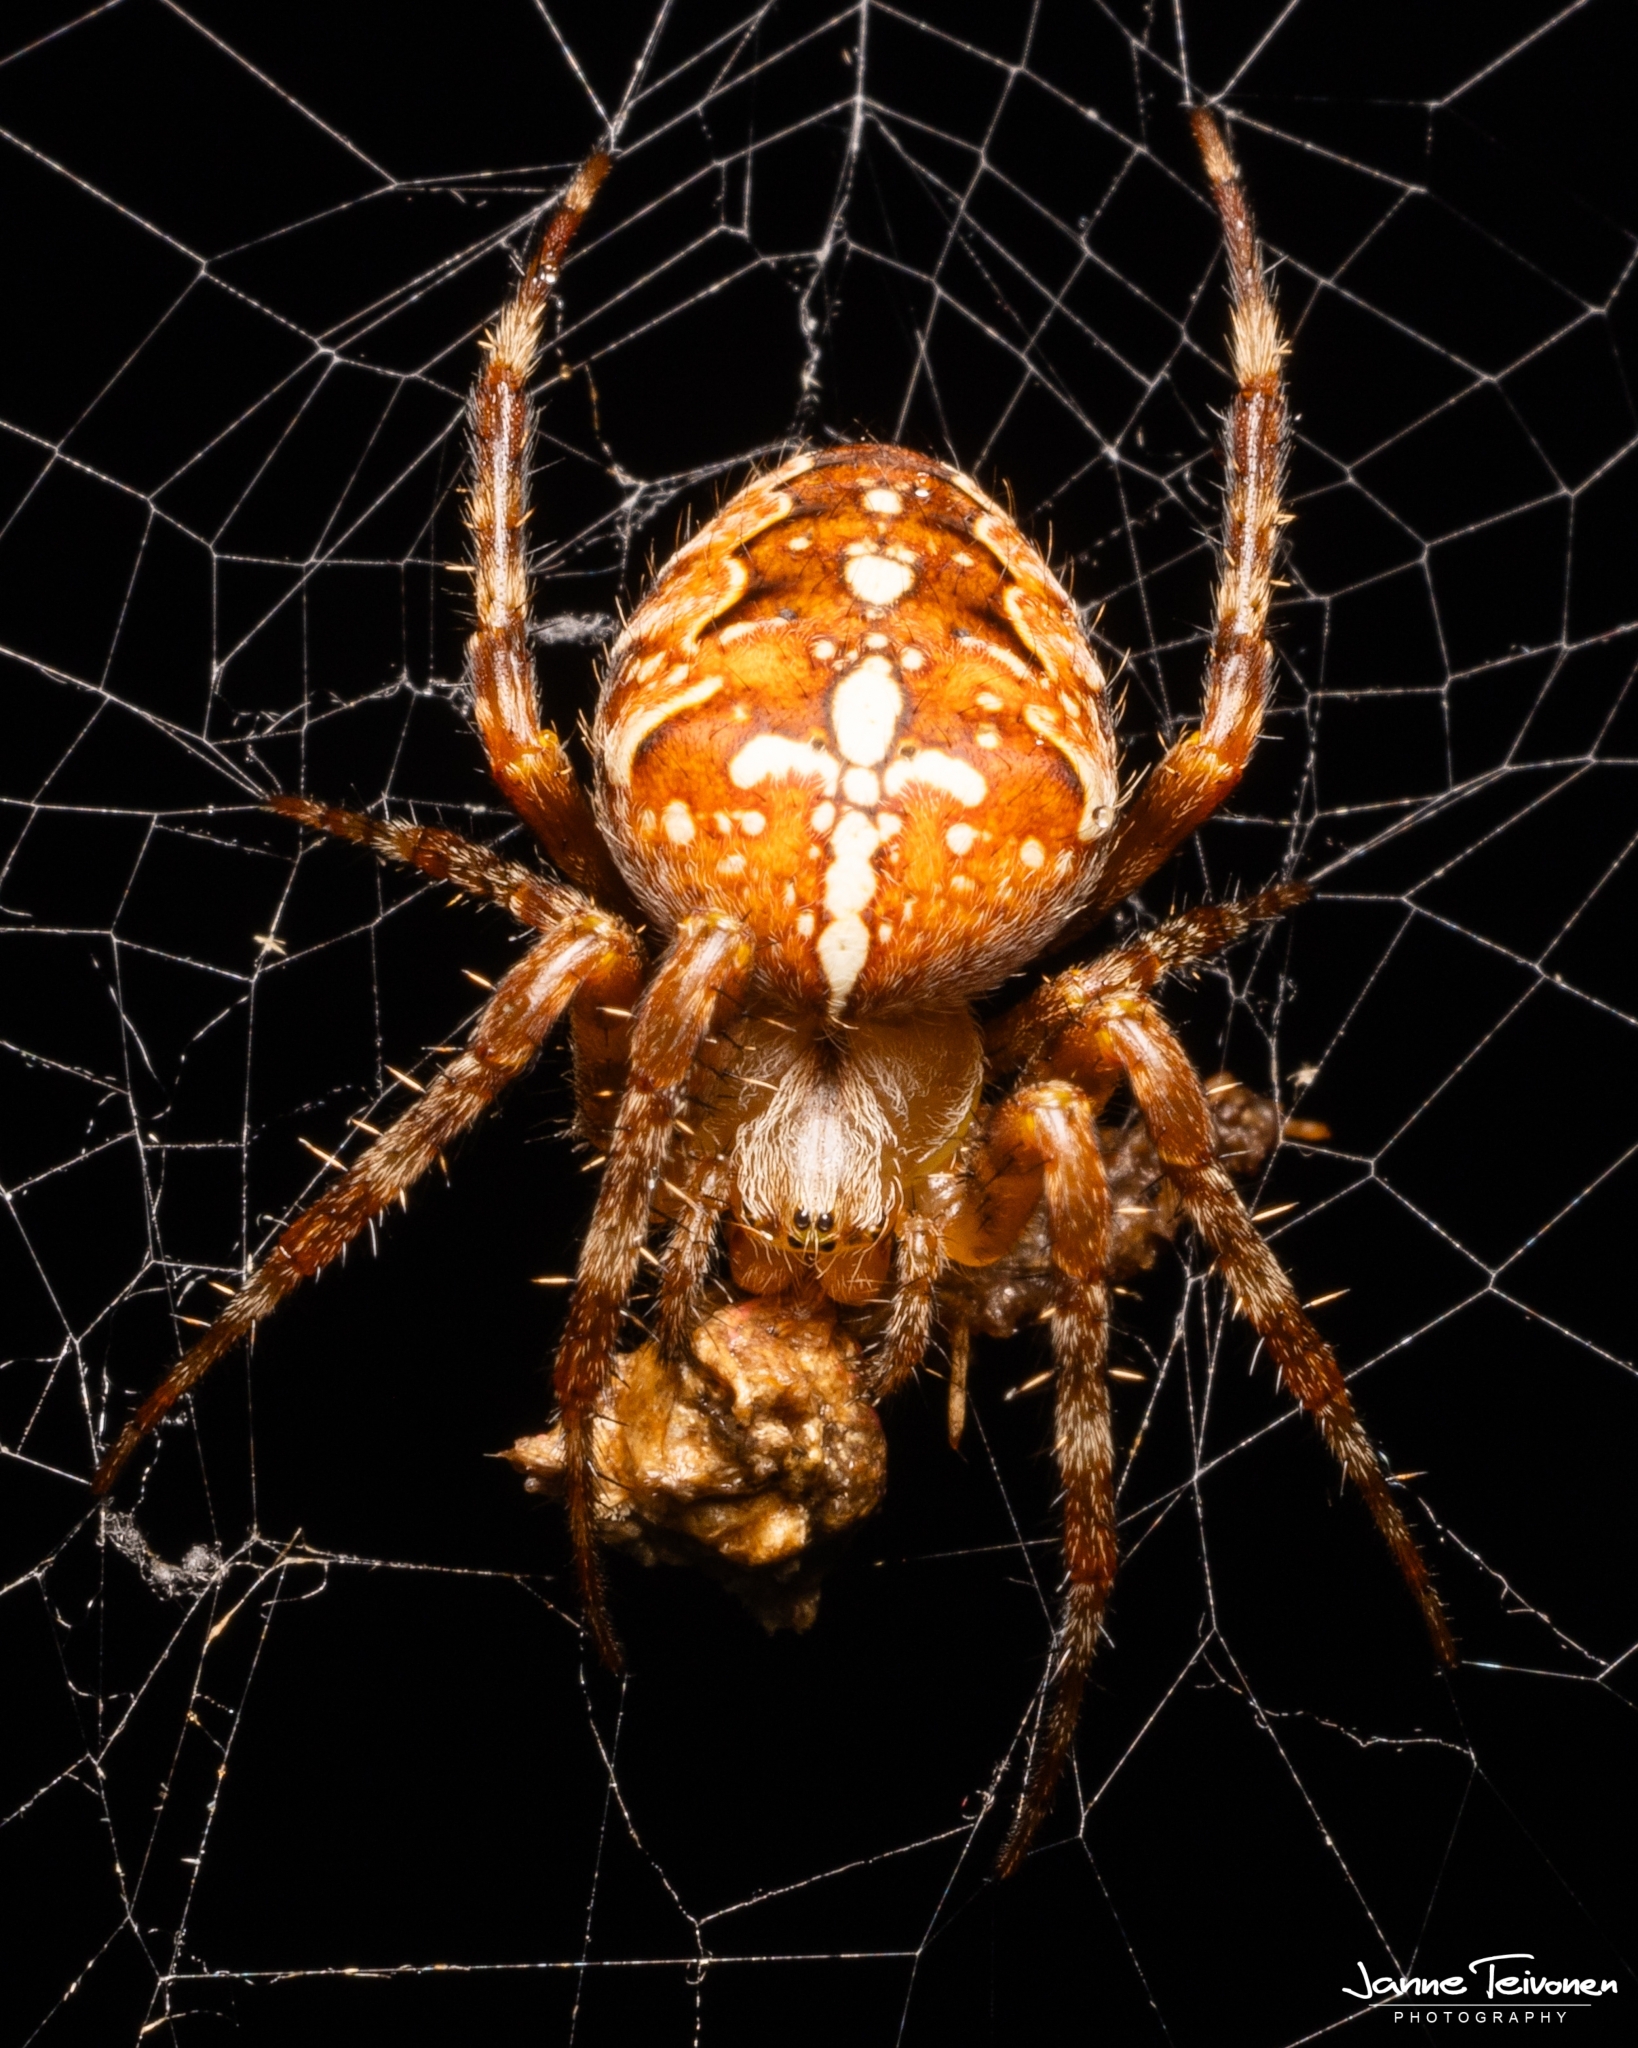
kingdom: Animalia
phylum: Arthropoda
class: Arachnida
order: Araneae
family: Araneidae
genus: Araneus
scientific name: Araneus diadematus
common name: Cross orbweaver
